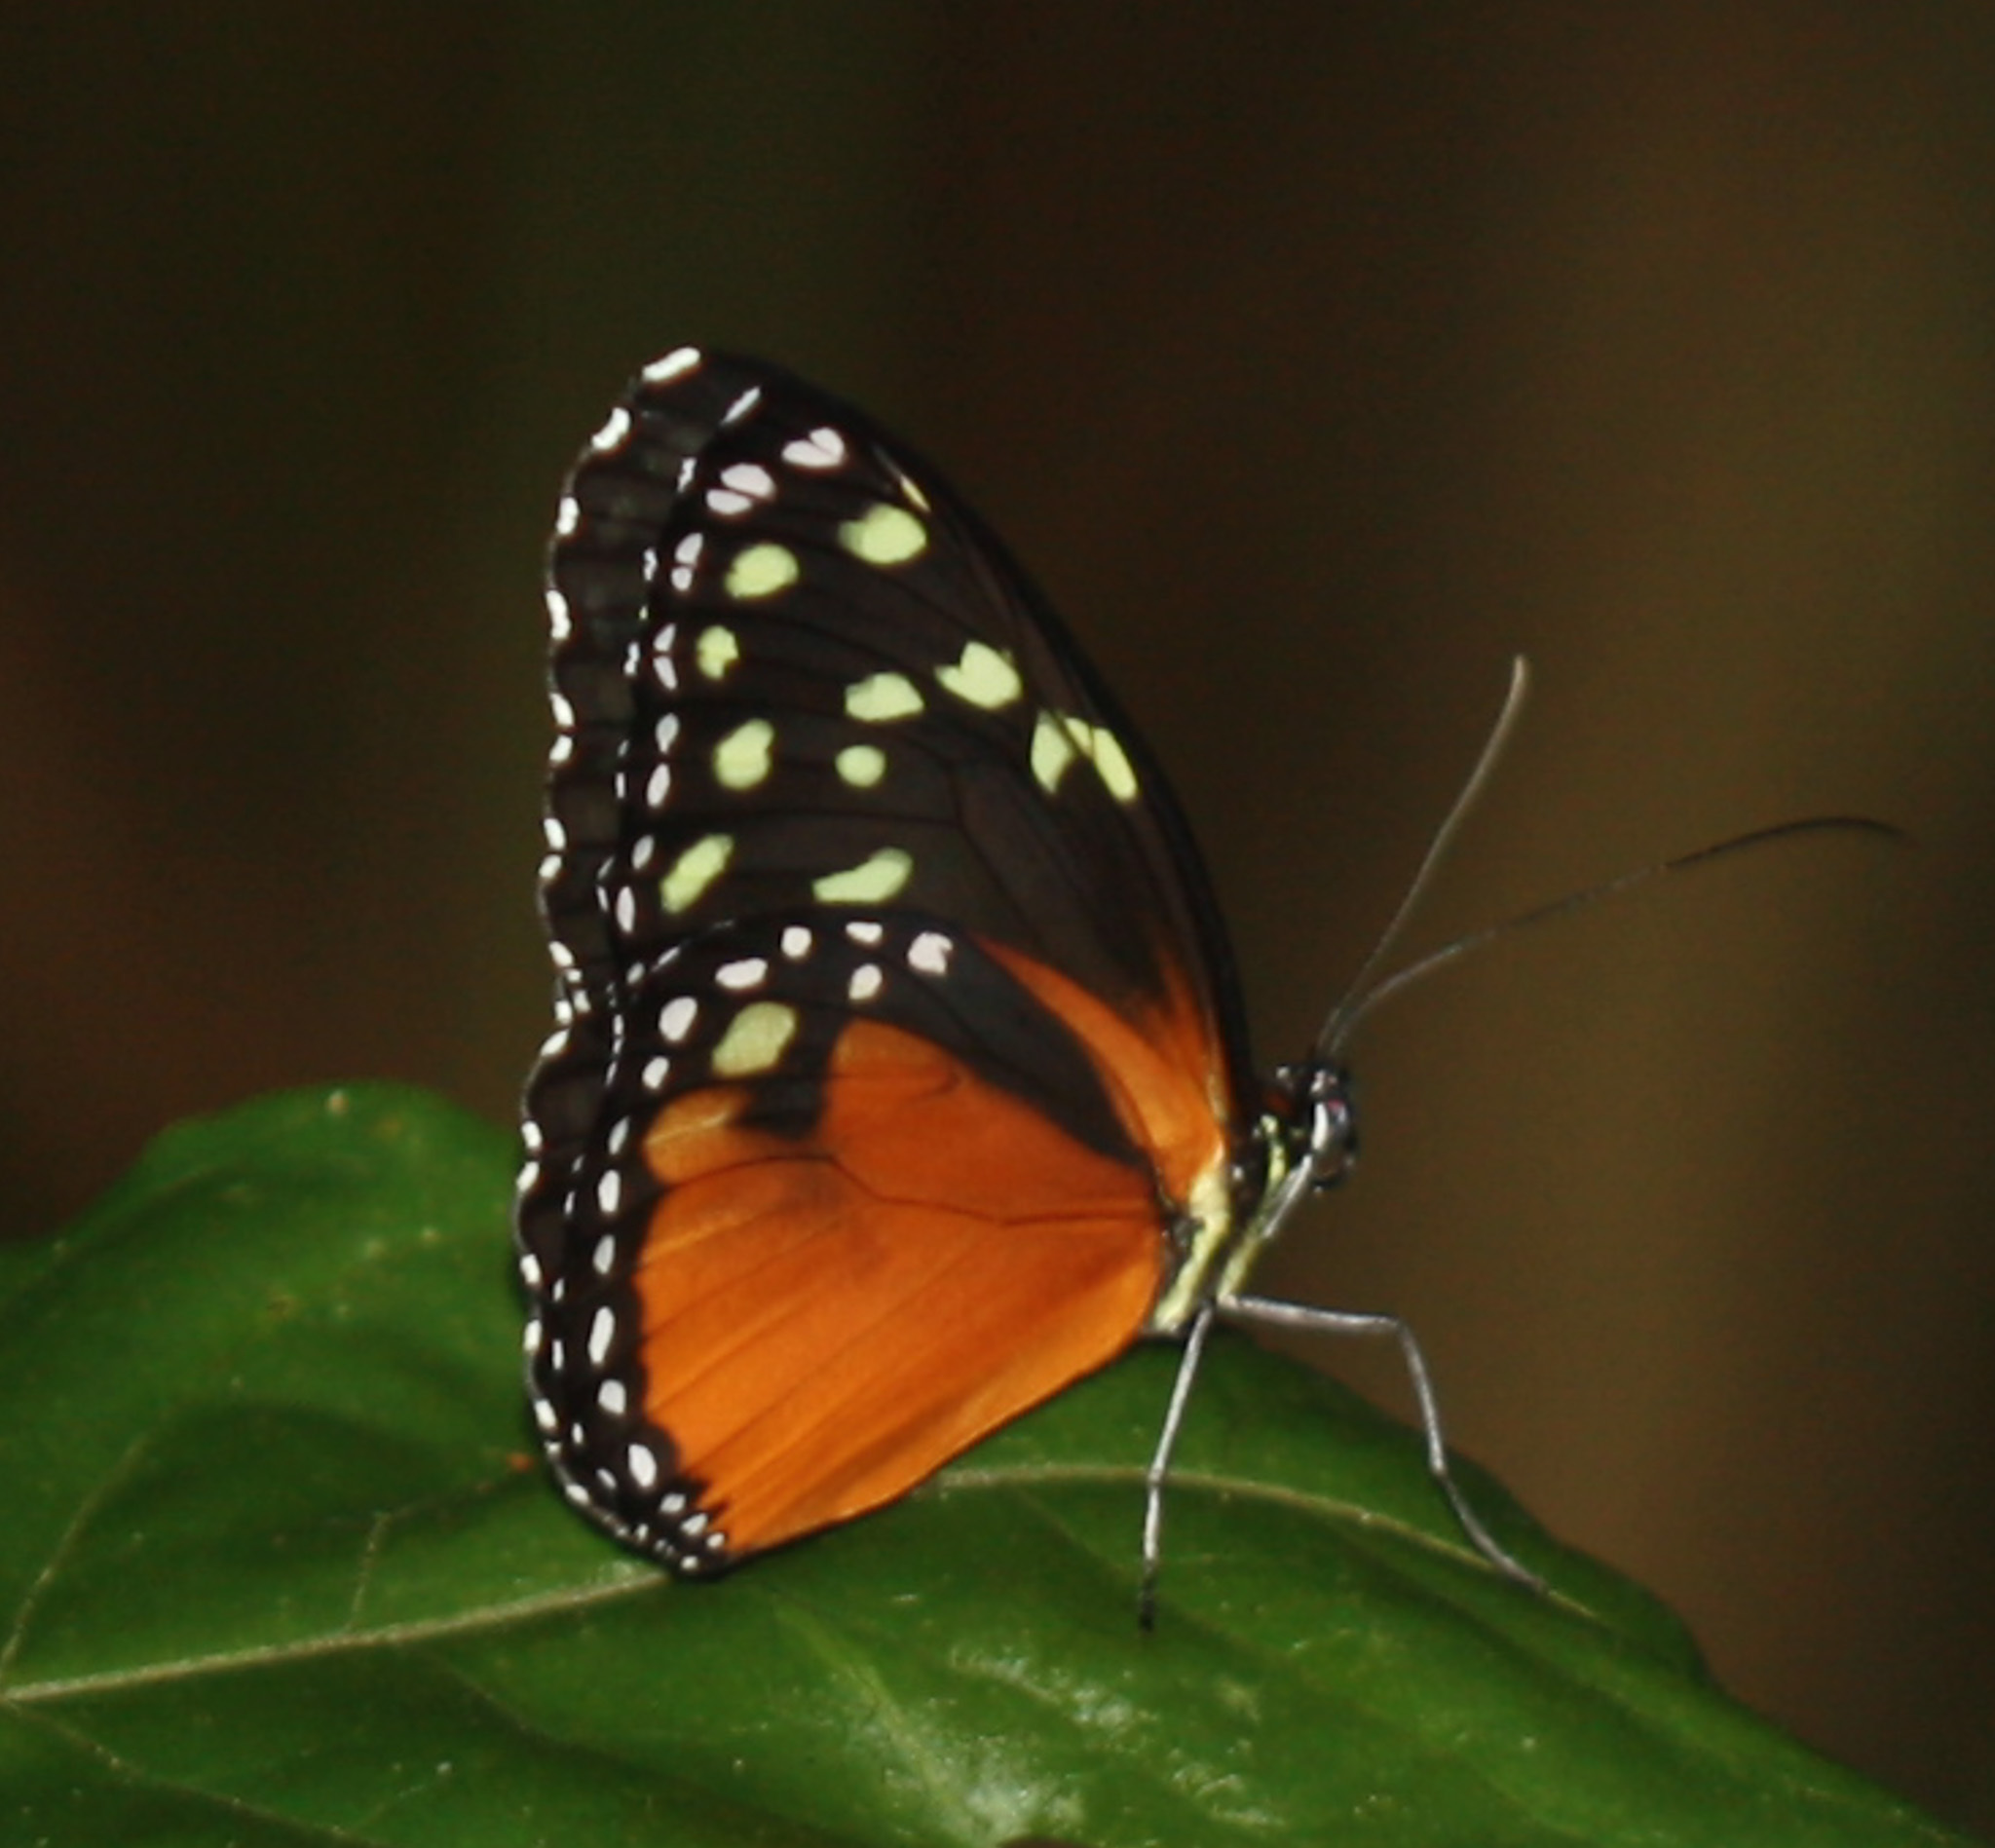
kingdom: Animalia
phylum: Arthropoda
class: Insecta
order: Lepidoptera
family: Nymphalidae
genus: Tithorea
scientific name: Tithorea tarricina
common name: Cream-spotted tigerwing
